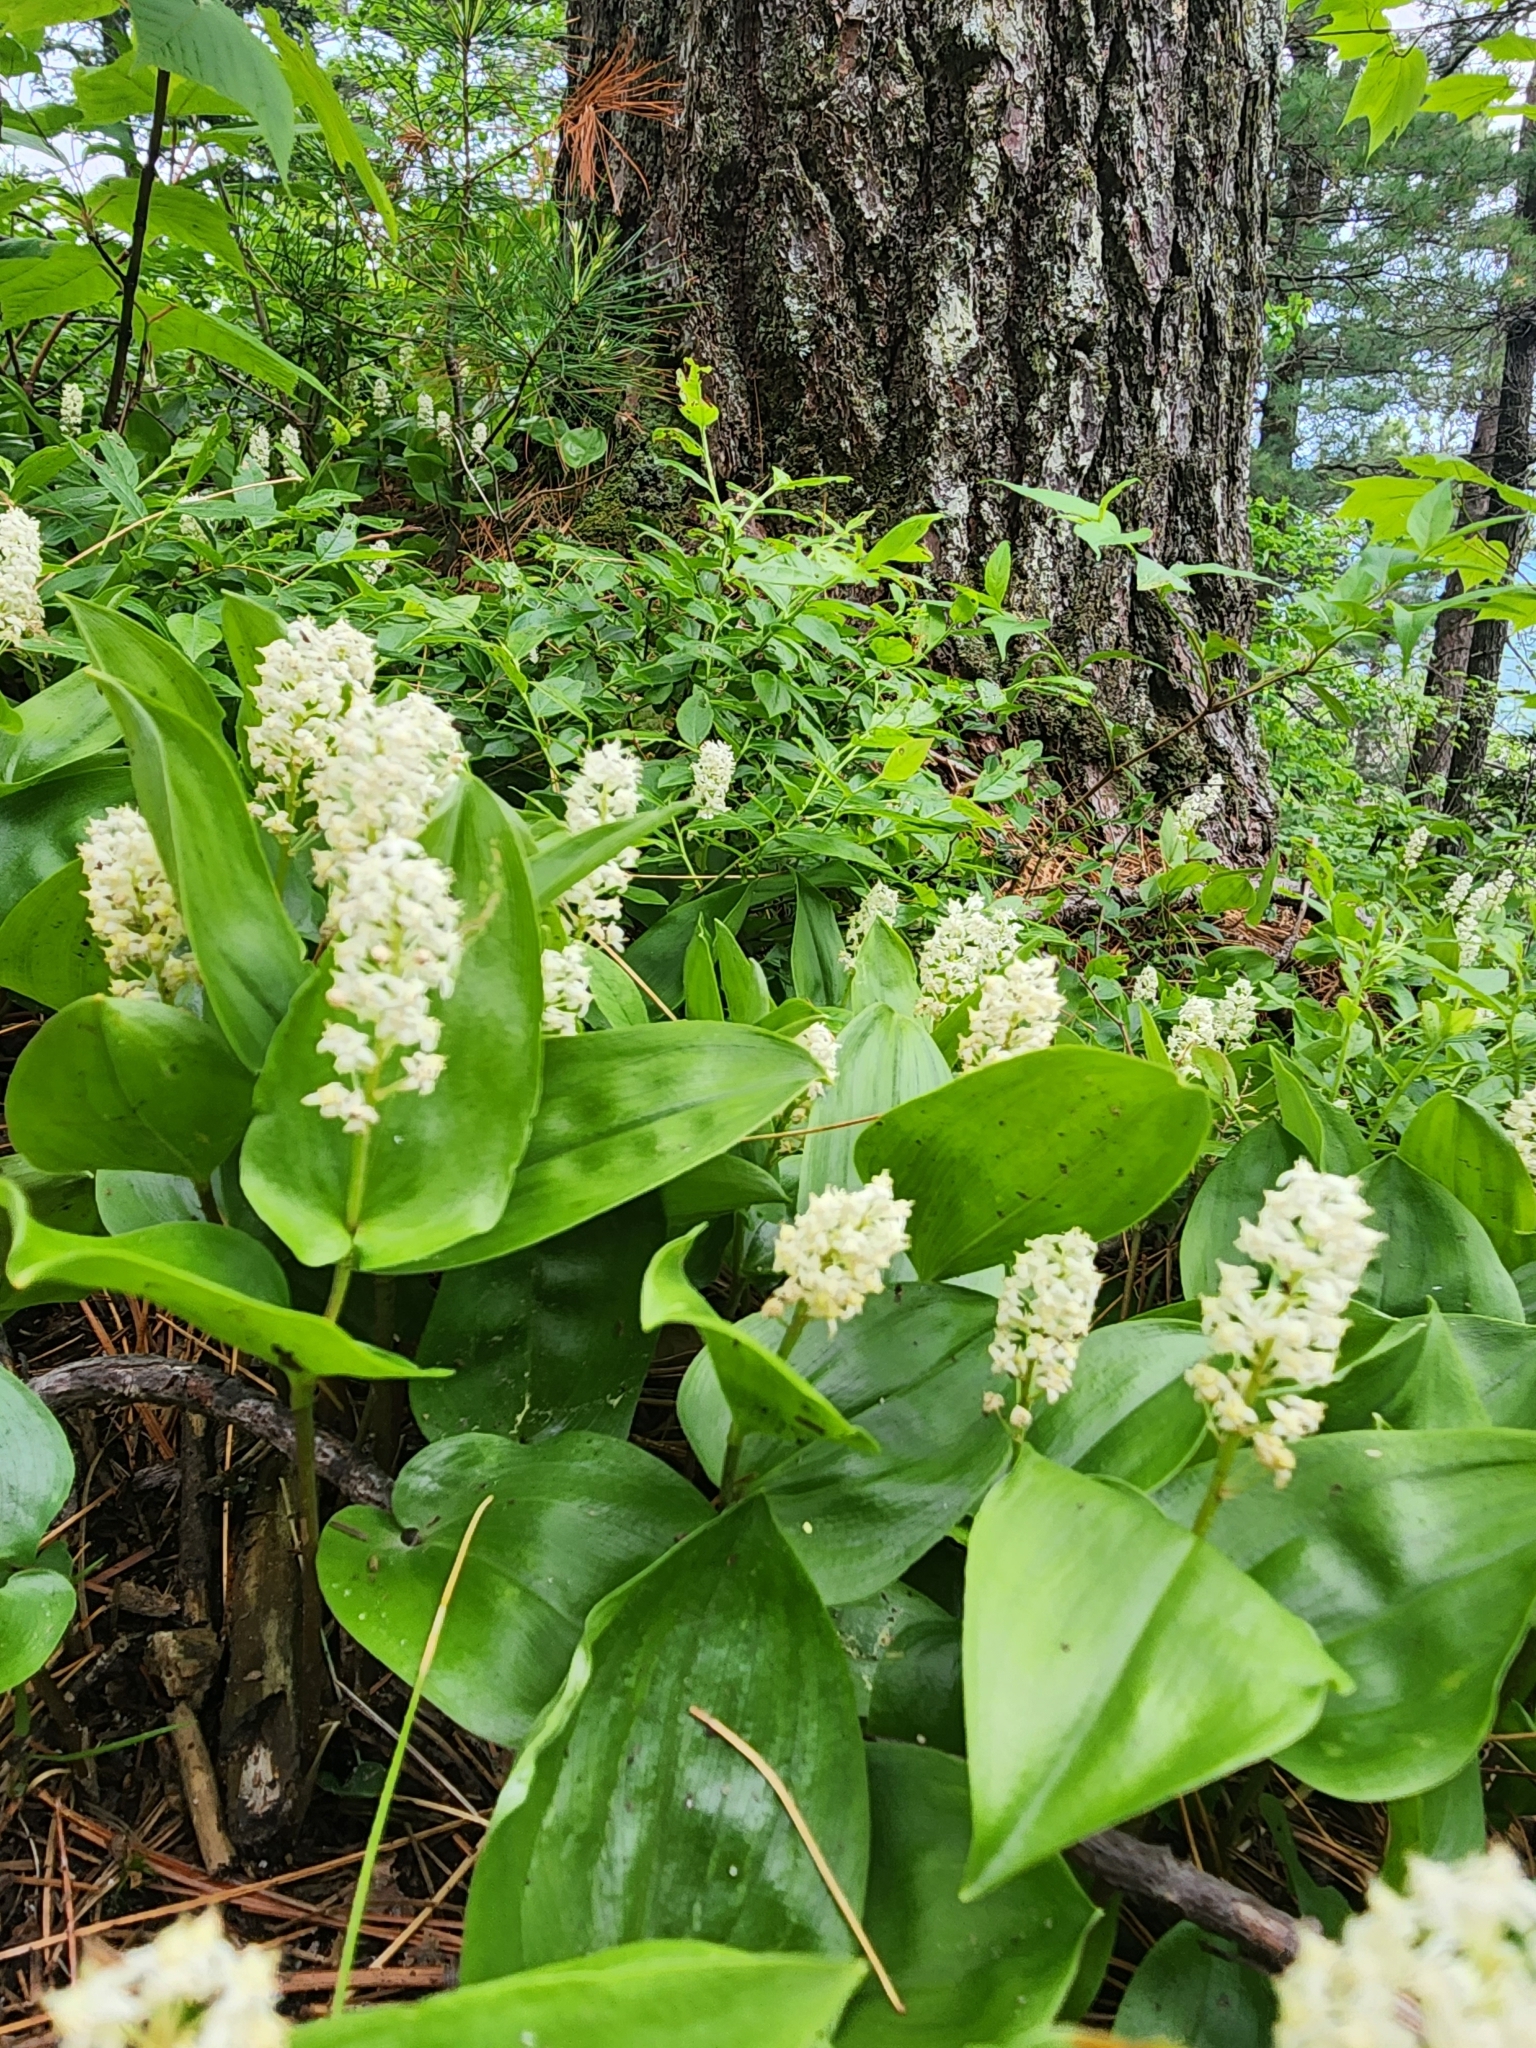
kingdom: Plantae
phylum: Tracheophyta
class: Liliopsida
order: Asparagales
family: Asparagaceae
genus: Maianthemum
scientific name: Maianthemum canadense
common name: False lily-of-the-valley
